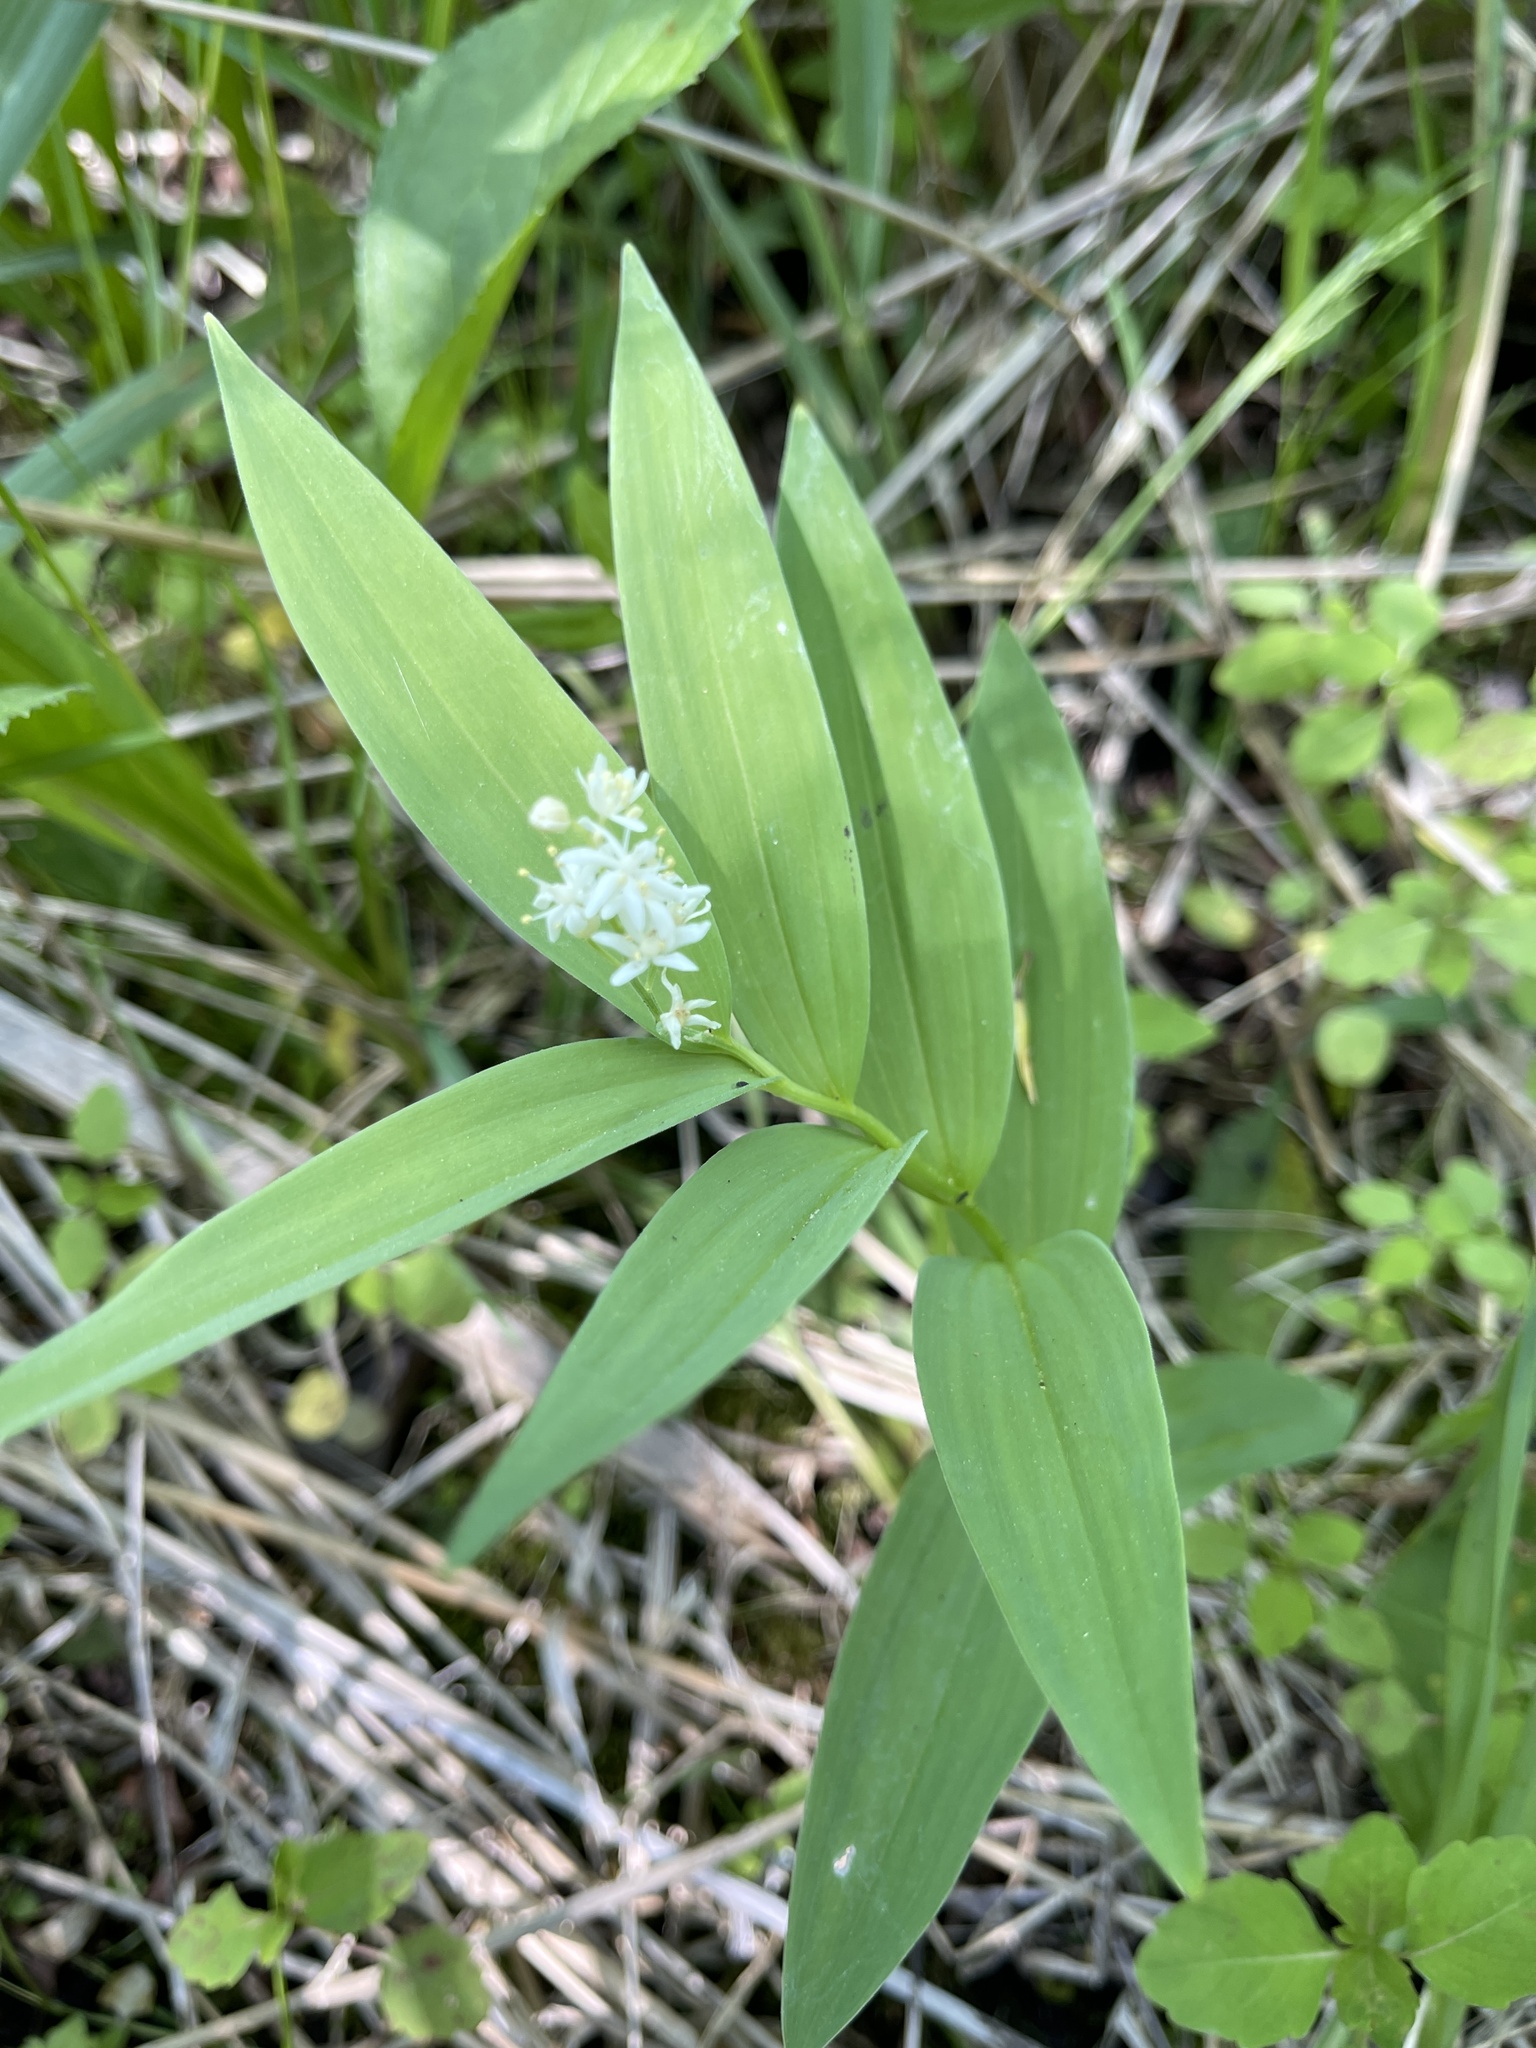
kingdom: Plantae
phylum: Tracheophyta
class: Liliopsida
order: Asparagales
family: Asparagaceae
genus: Maianthemum
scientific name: Maianthemum stellatum
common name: Little false solomon's seal
